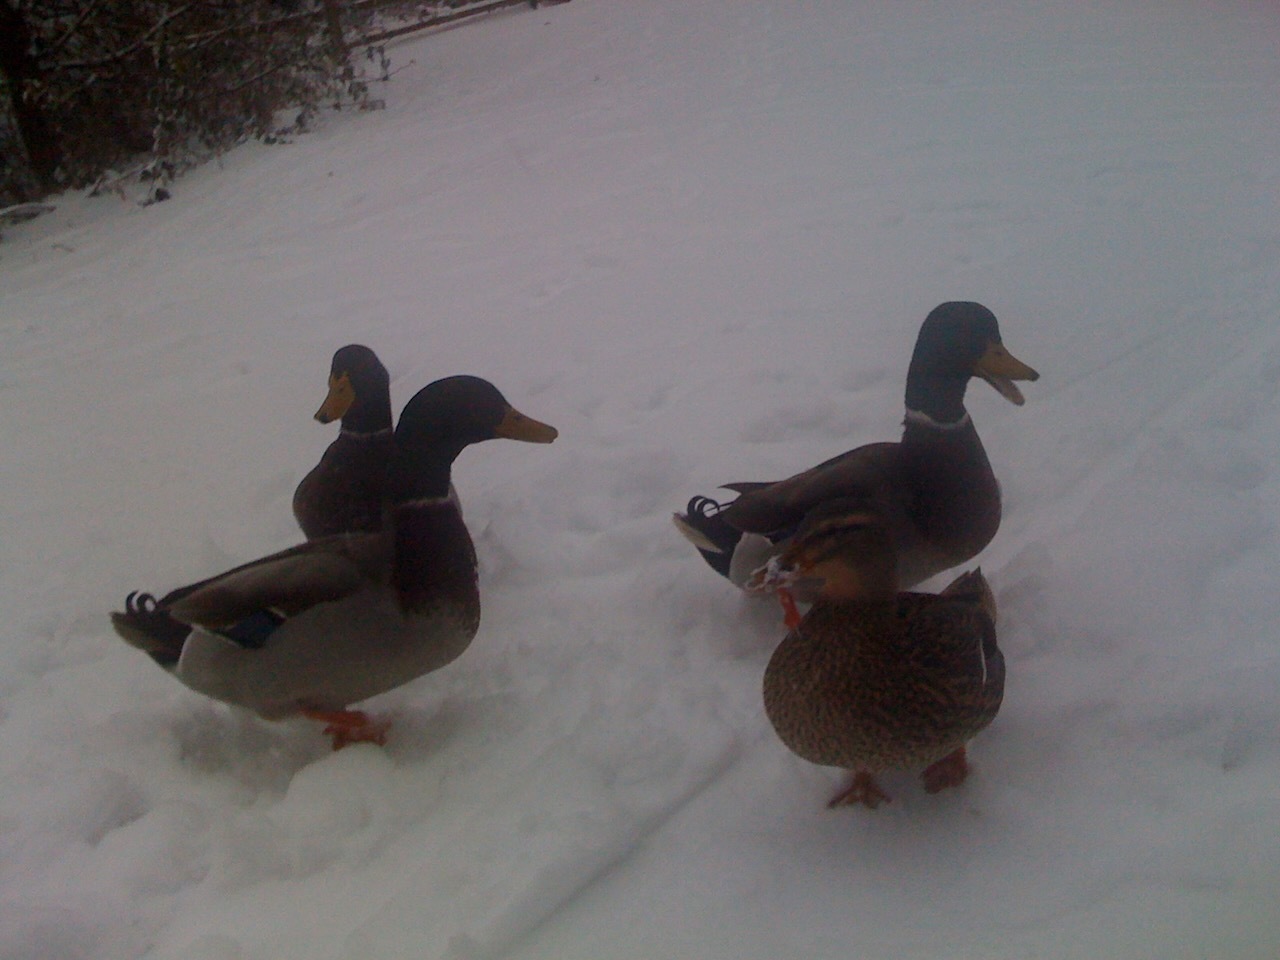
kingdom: Animalia
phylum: Chordata
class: Aves
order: Anseriformes
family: Anatidae
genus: Anas
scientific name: Anas platyrhynchos
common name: Mallard
